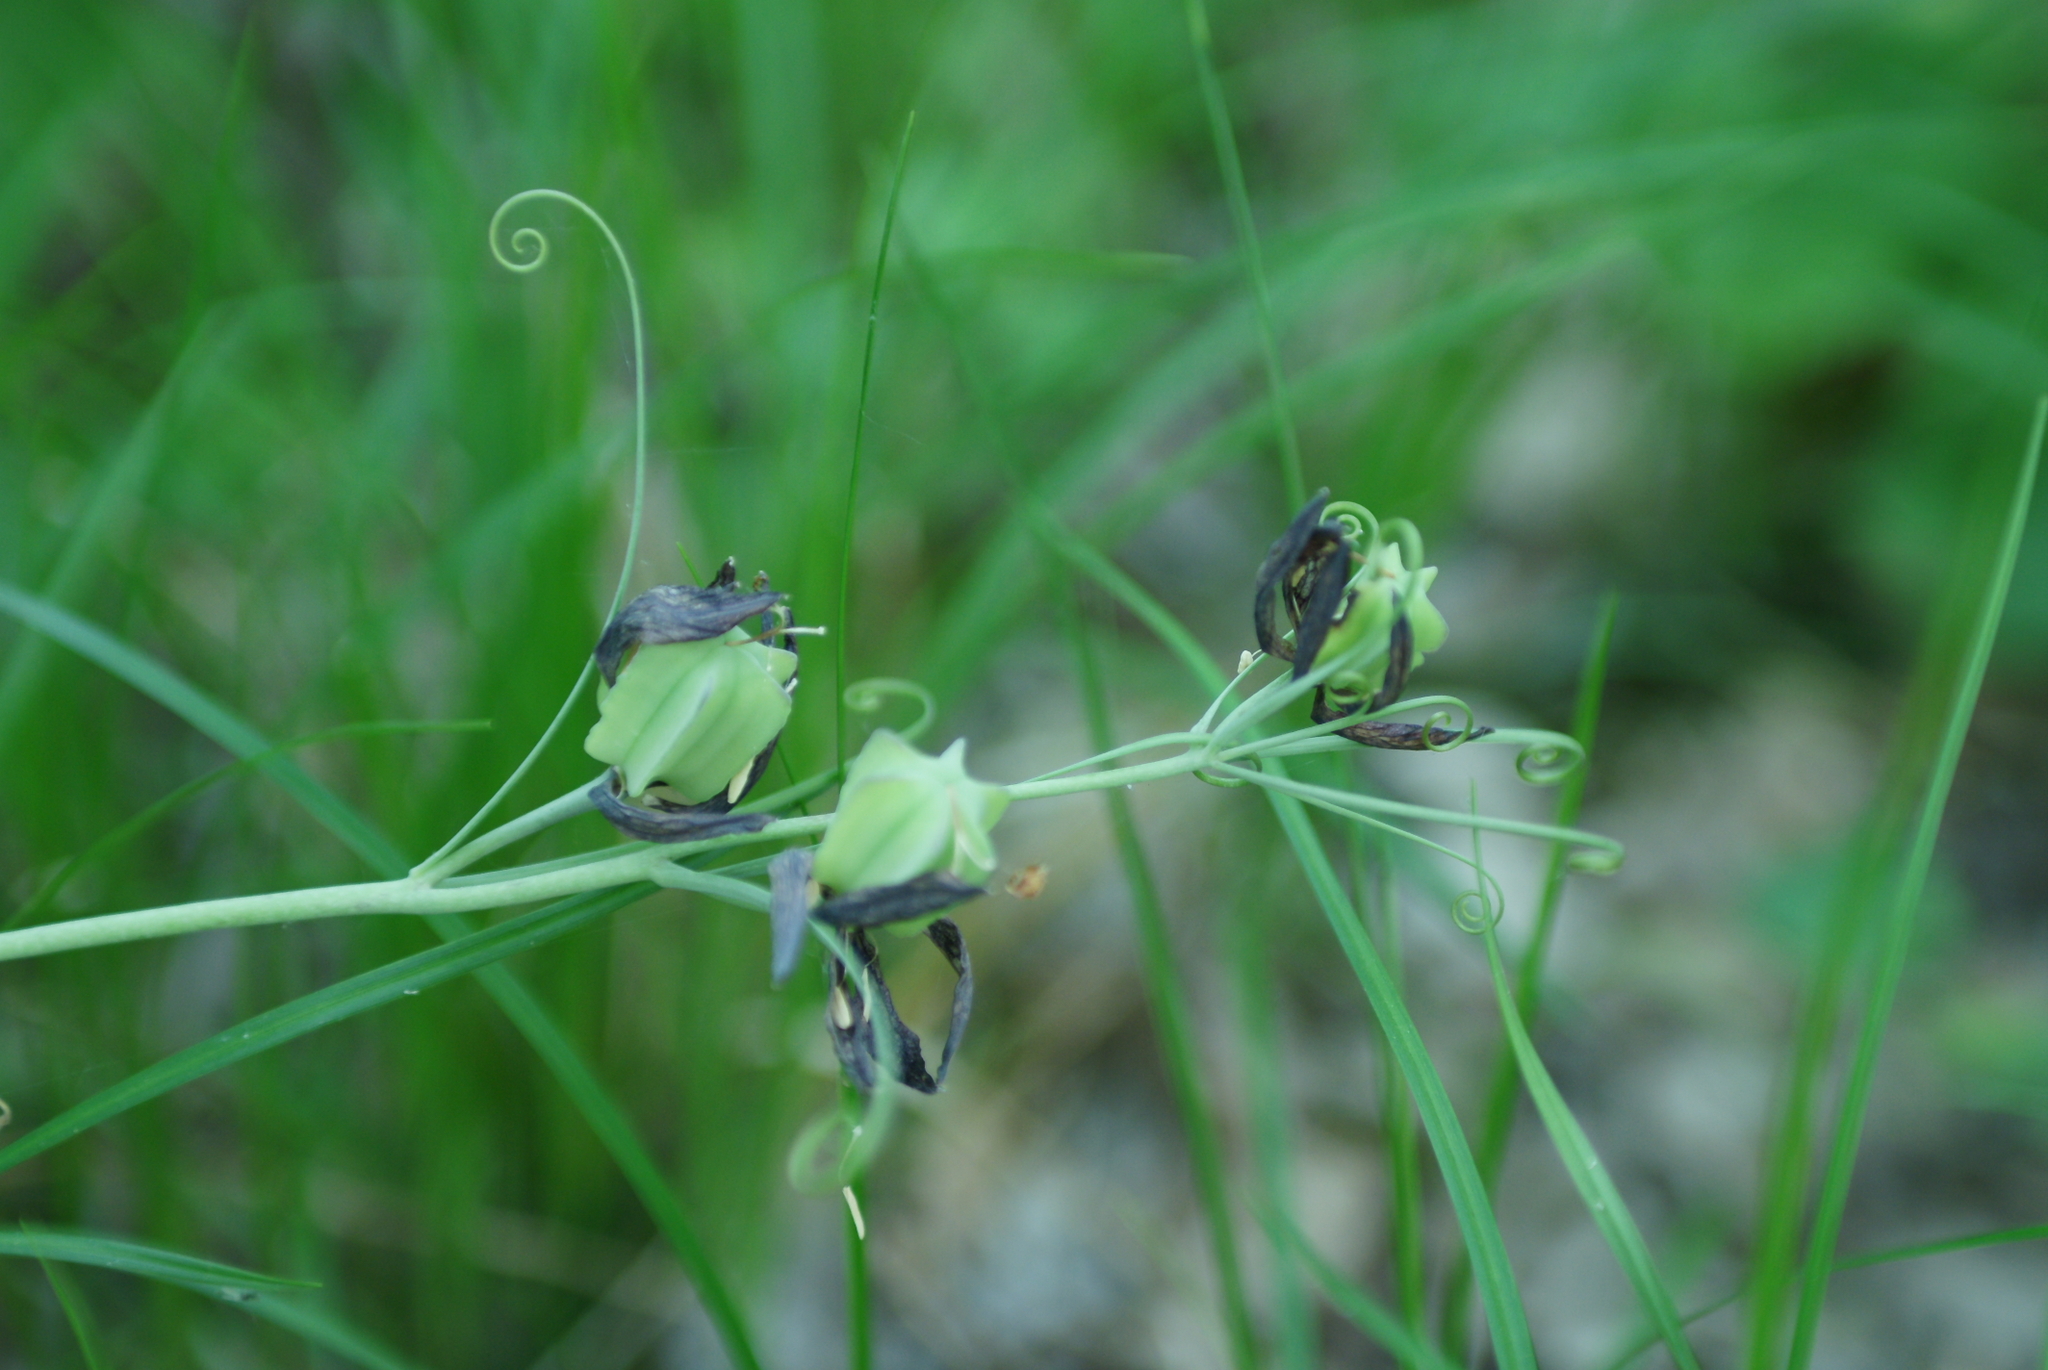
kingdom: Plantae
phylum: Tracheophyta
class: Liliopsida
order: Liliales
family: Liliaceae
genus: Fritillaria
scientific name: Fritillaria ruthenica
